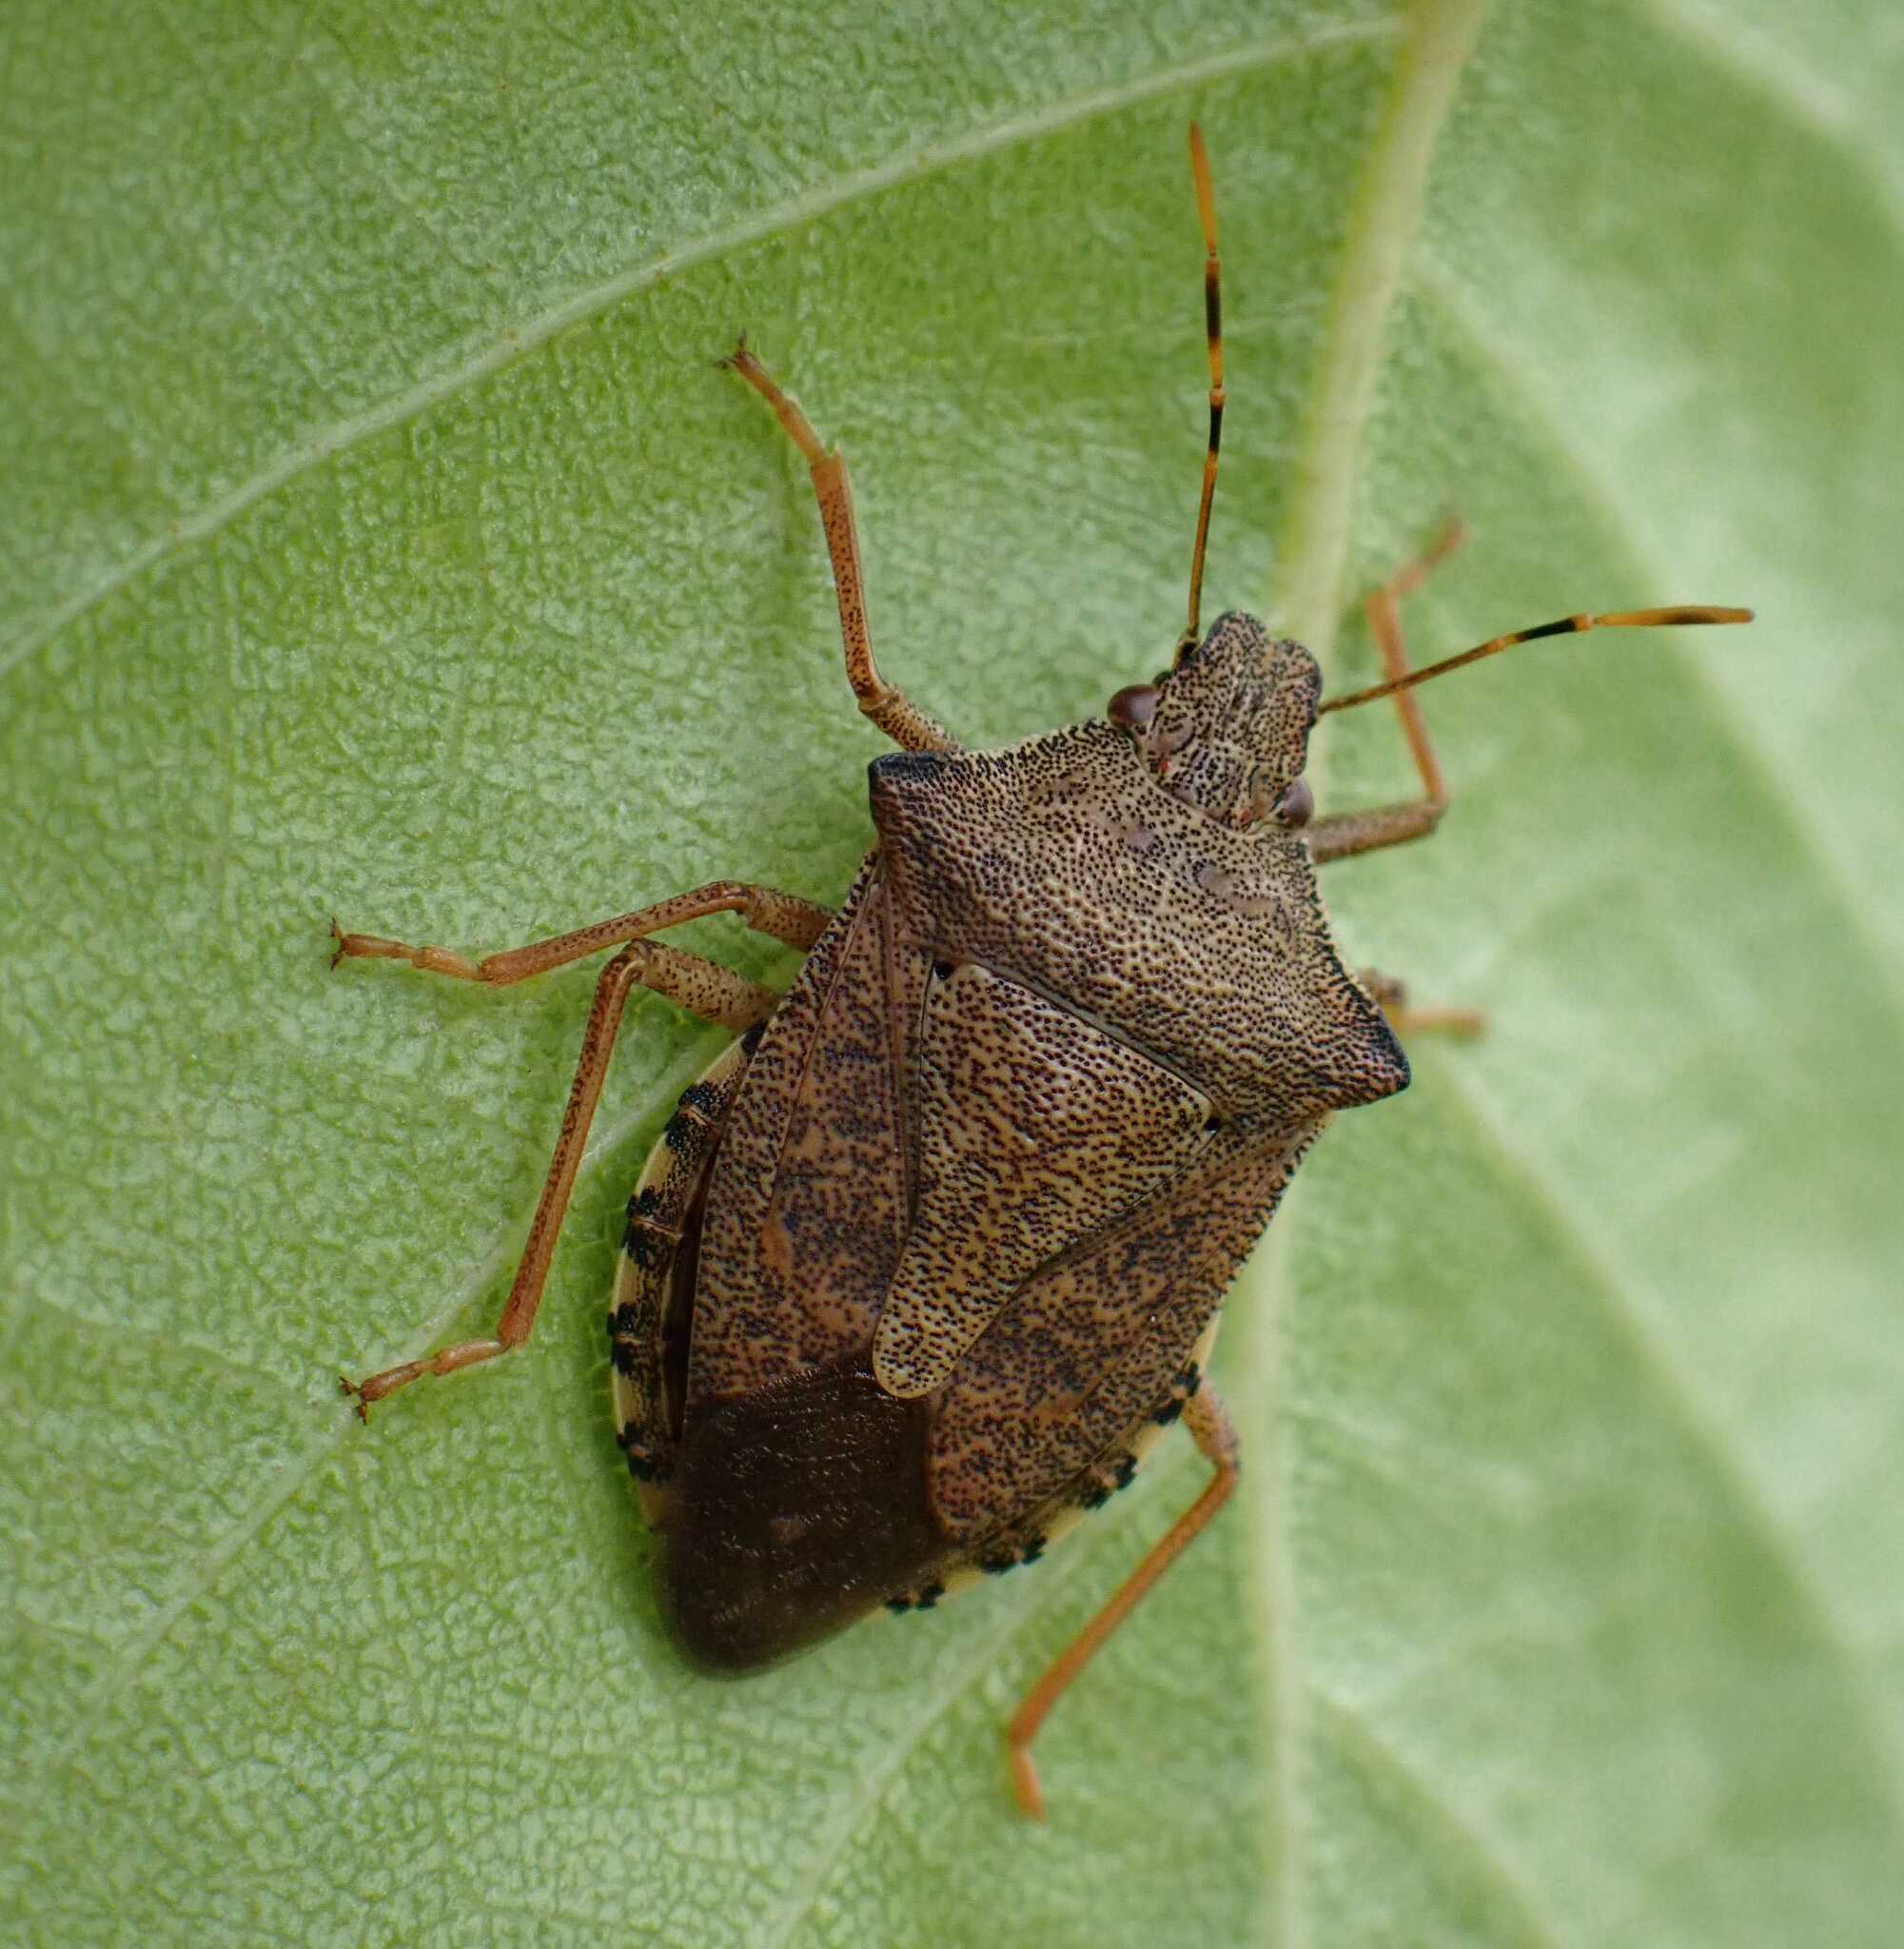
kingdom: Animalia
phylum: Arthropoda
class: Insecta
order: Hemiptera
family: Pentatomidae
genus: Arma
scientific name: Arma custos
